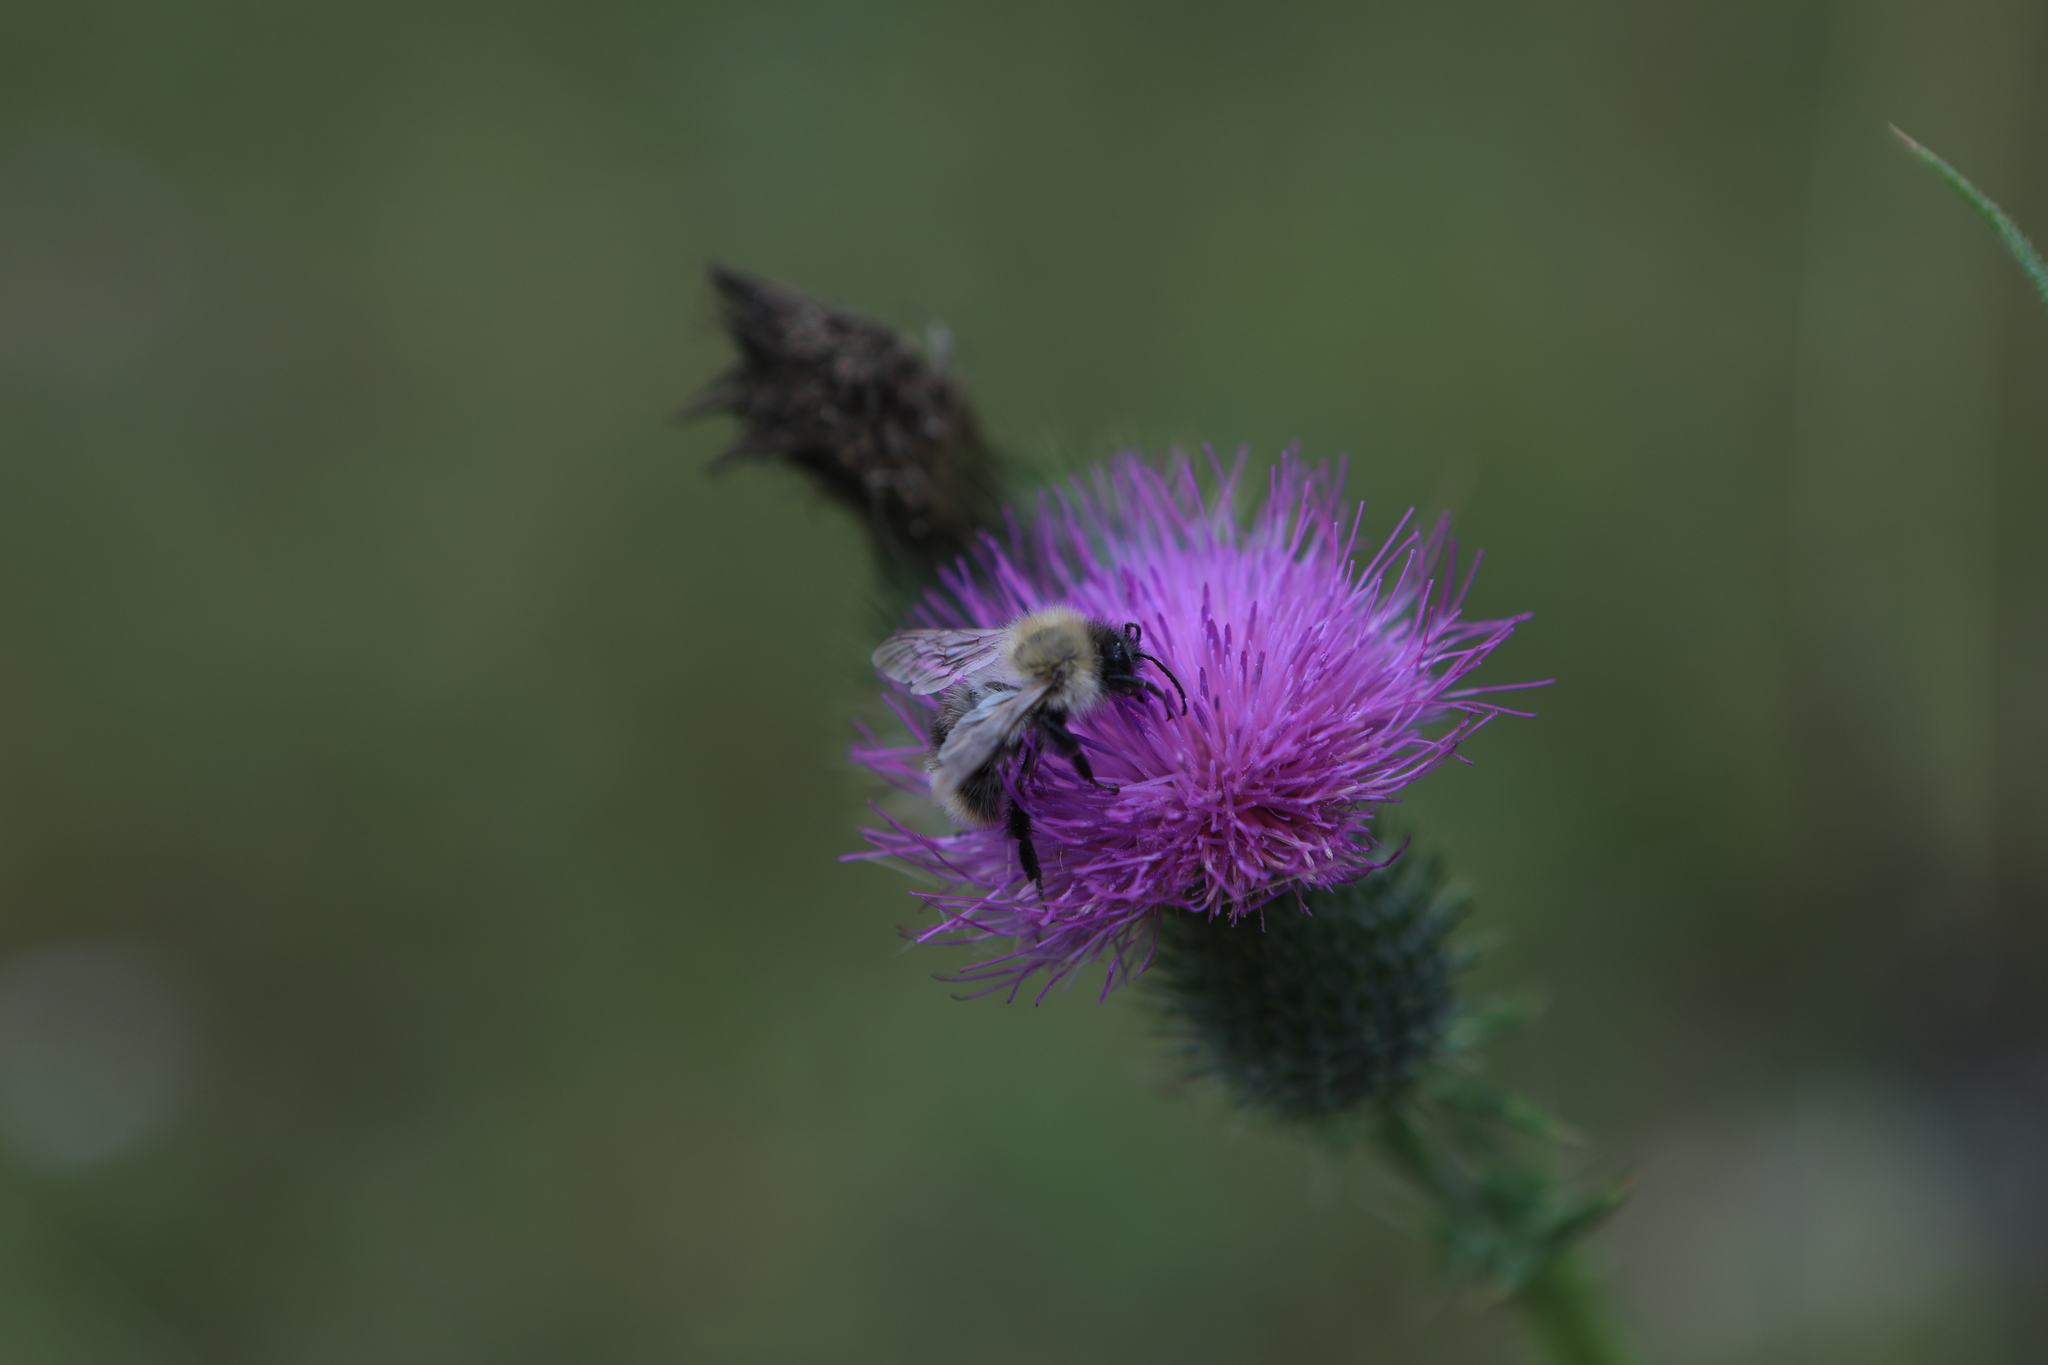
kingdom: Plantae
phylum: Tracheophyta
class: Magnoliopsida
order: Asterales
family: Asteraceae
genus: Cirsium
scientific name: Cirsium vulgare
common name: Bull thistle
